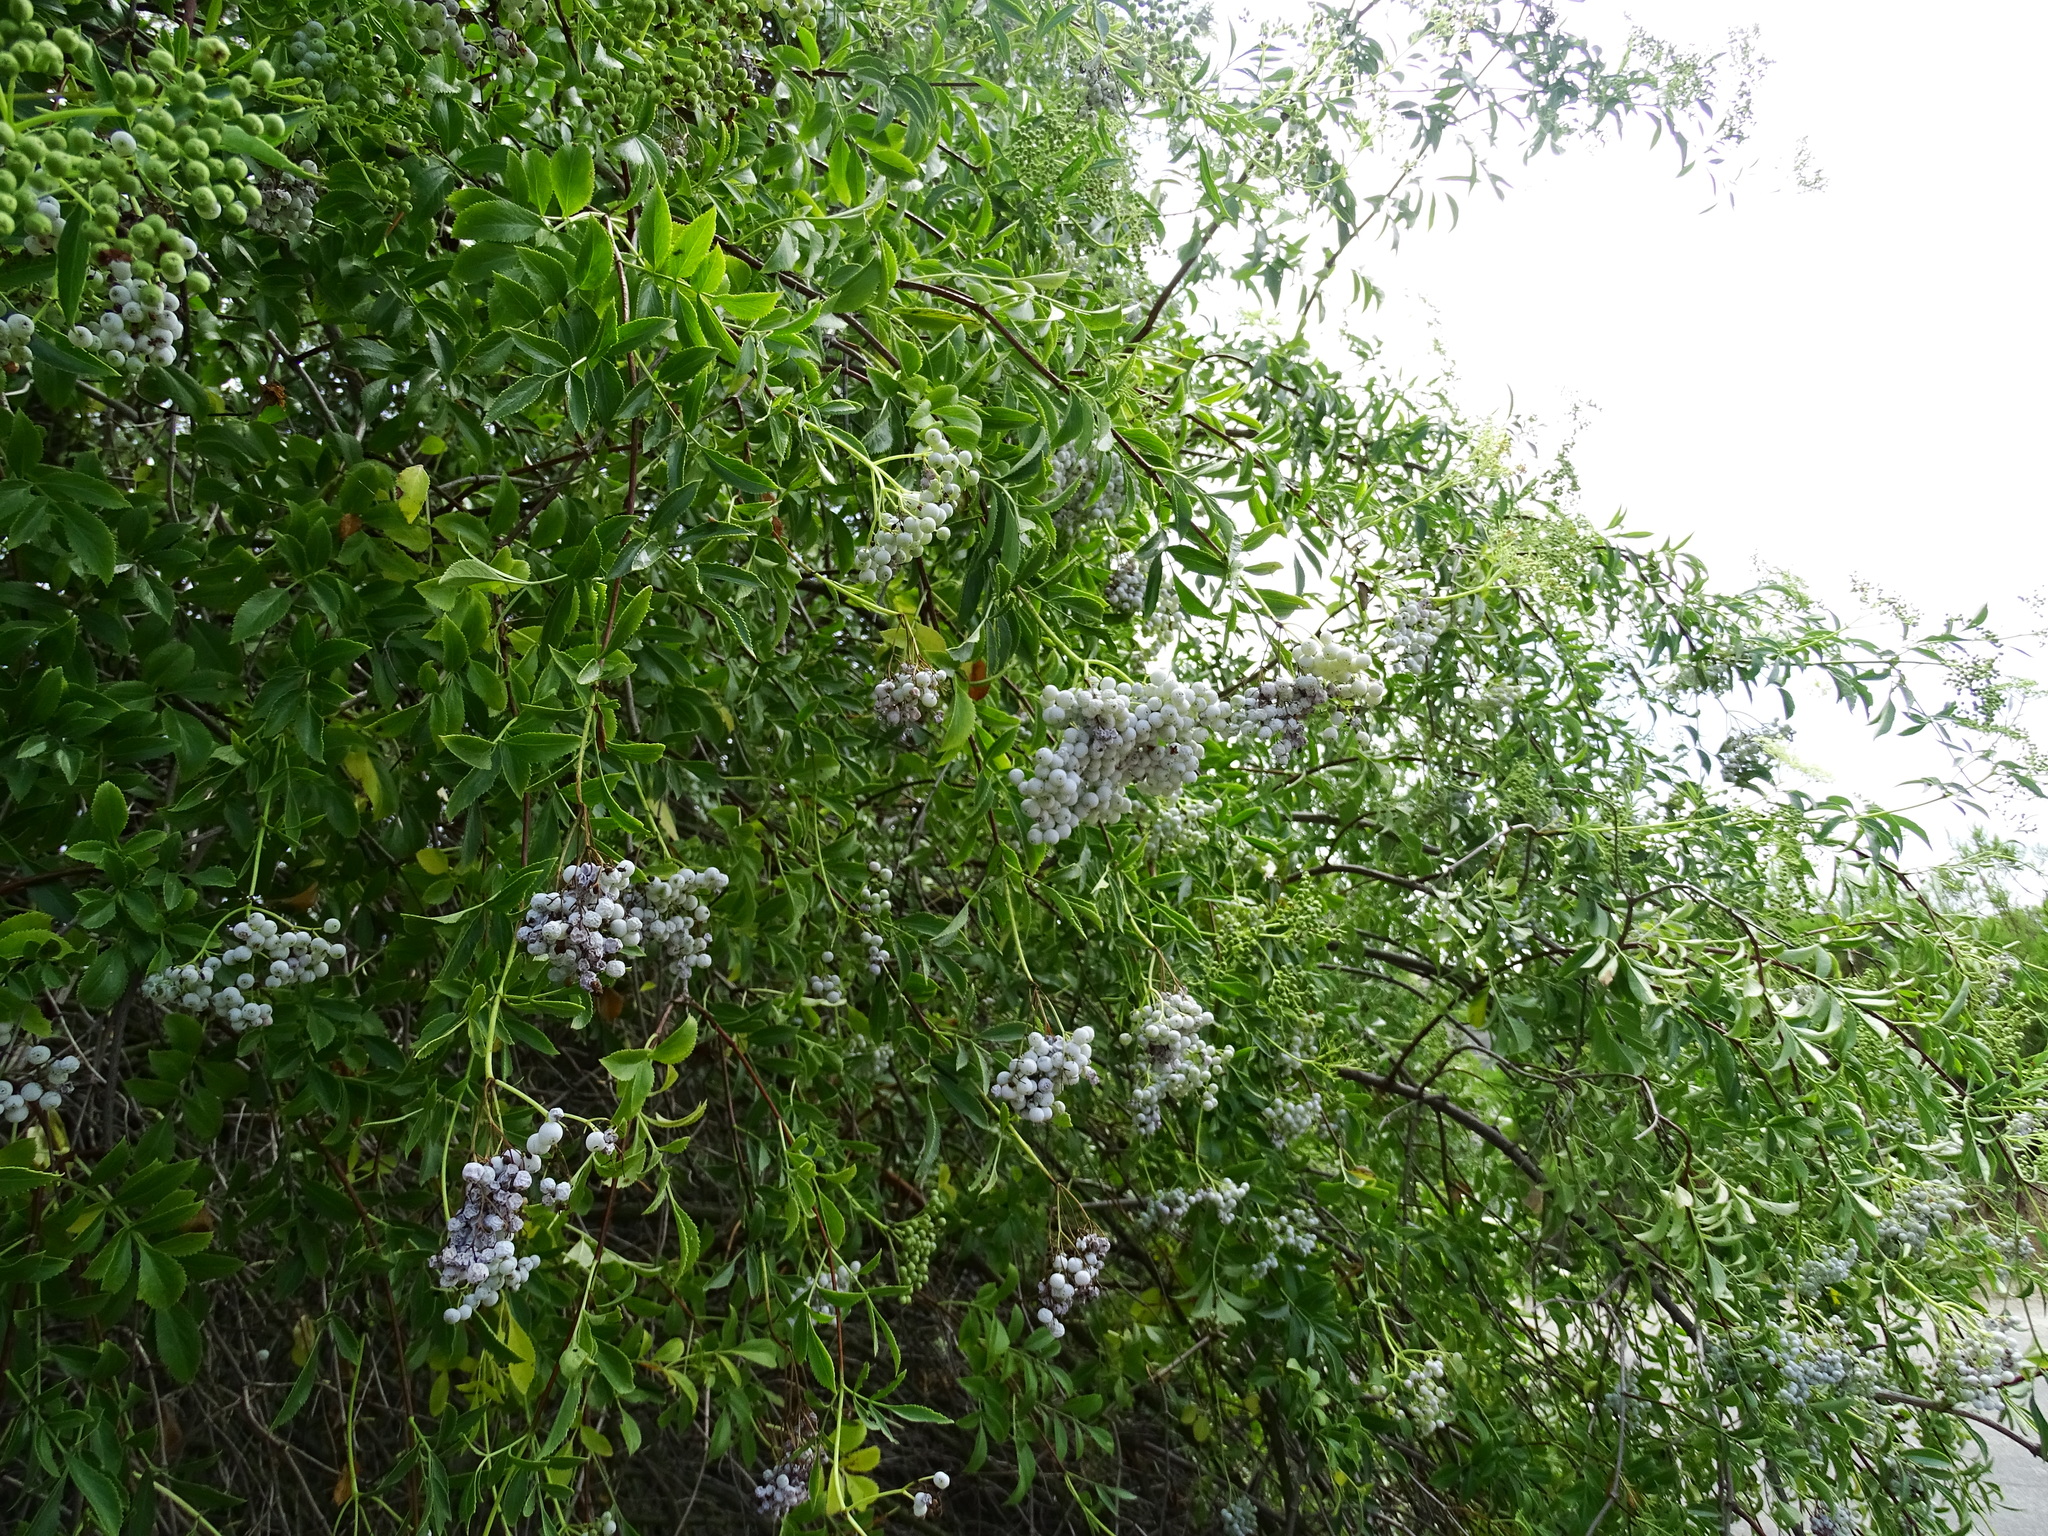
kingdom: Plantae
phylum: Tracheophyta
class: Magnoliopsida
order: Dipsacales
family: Viburnaceae
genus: Sambucus
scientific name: Sambucus cerulea
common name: Blue elder
